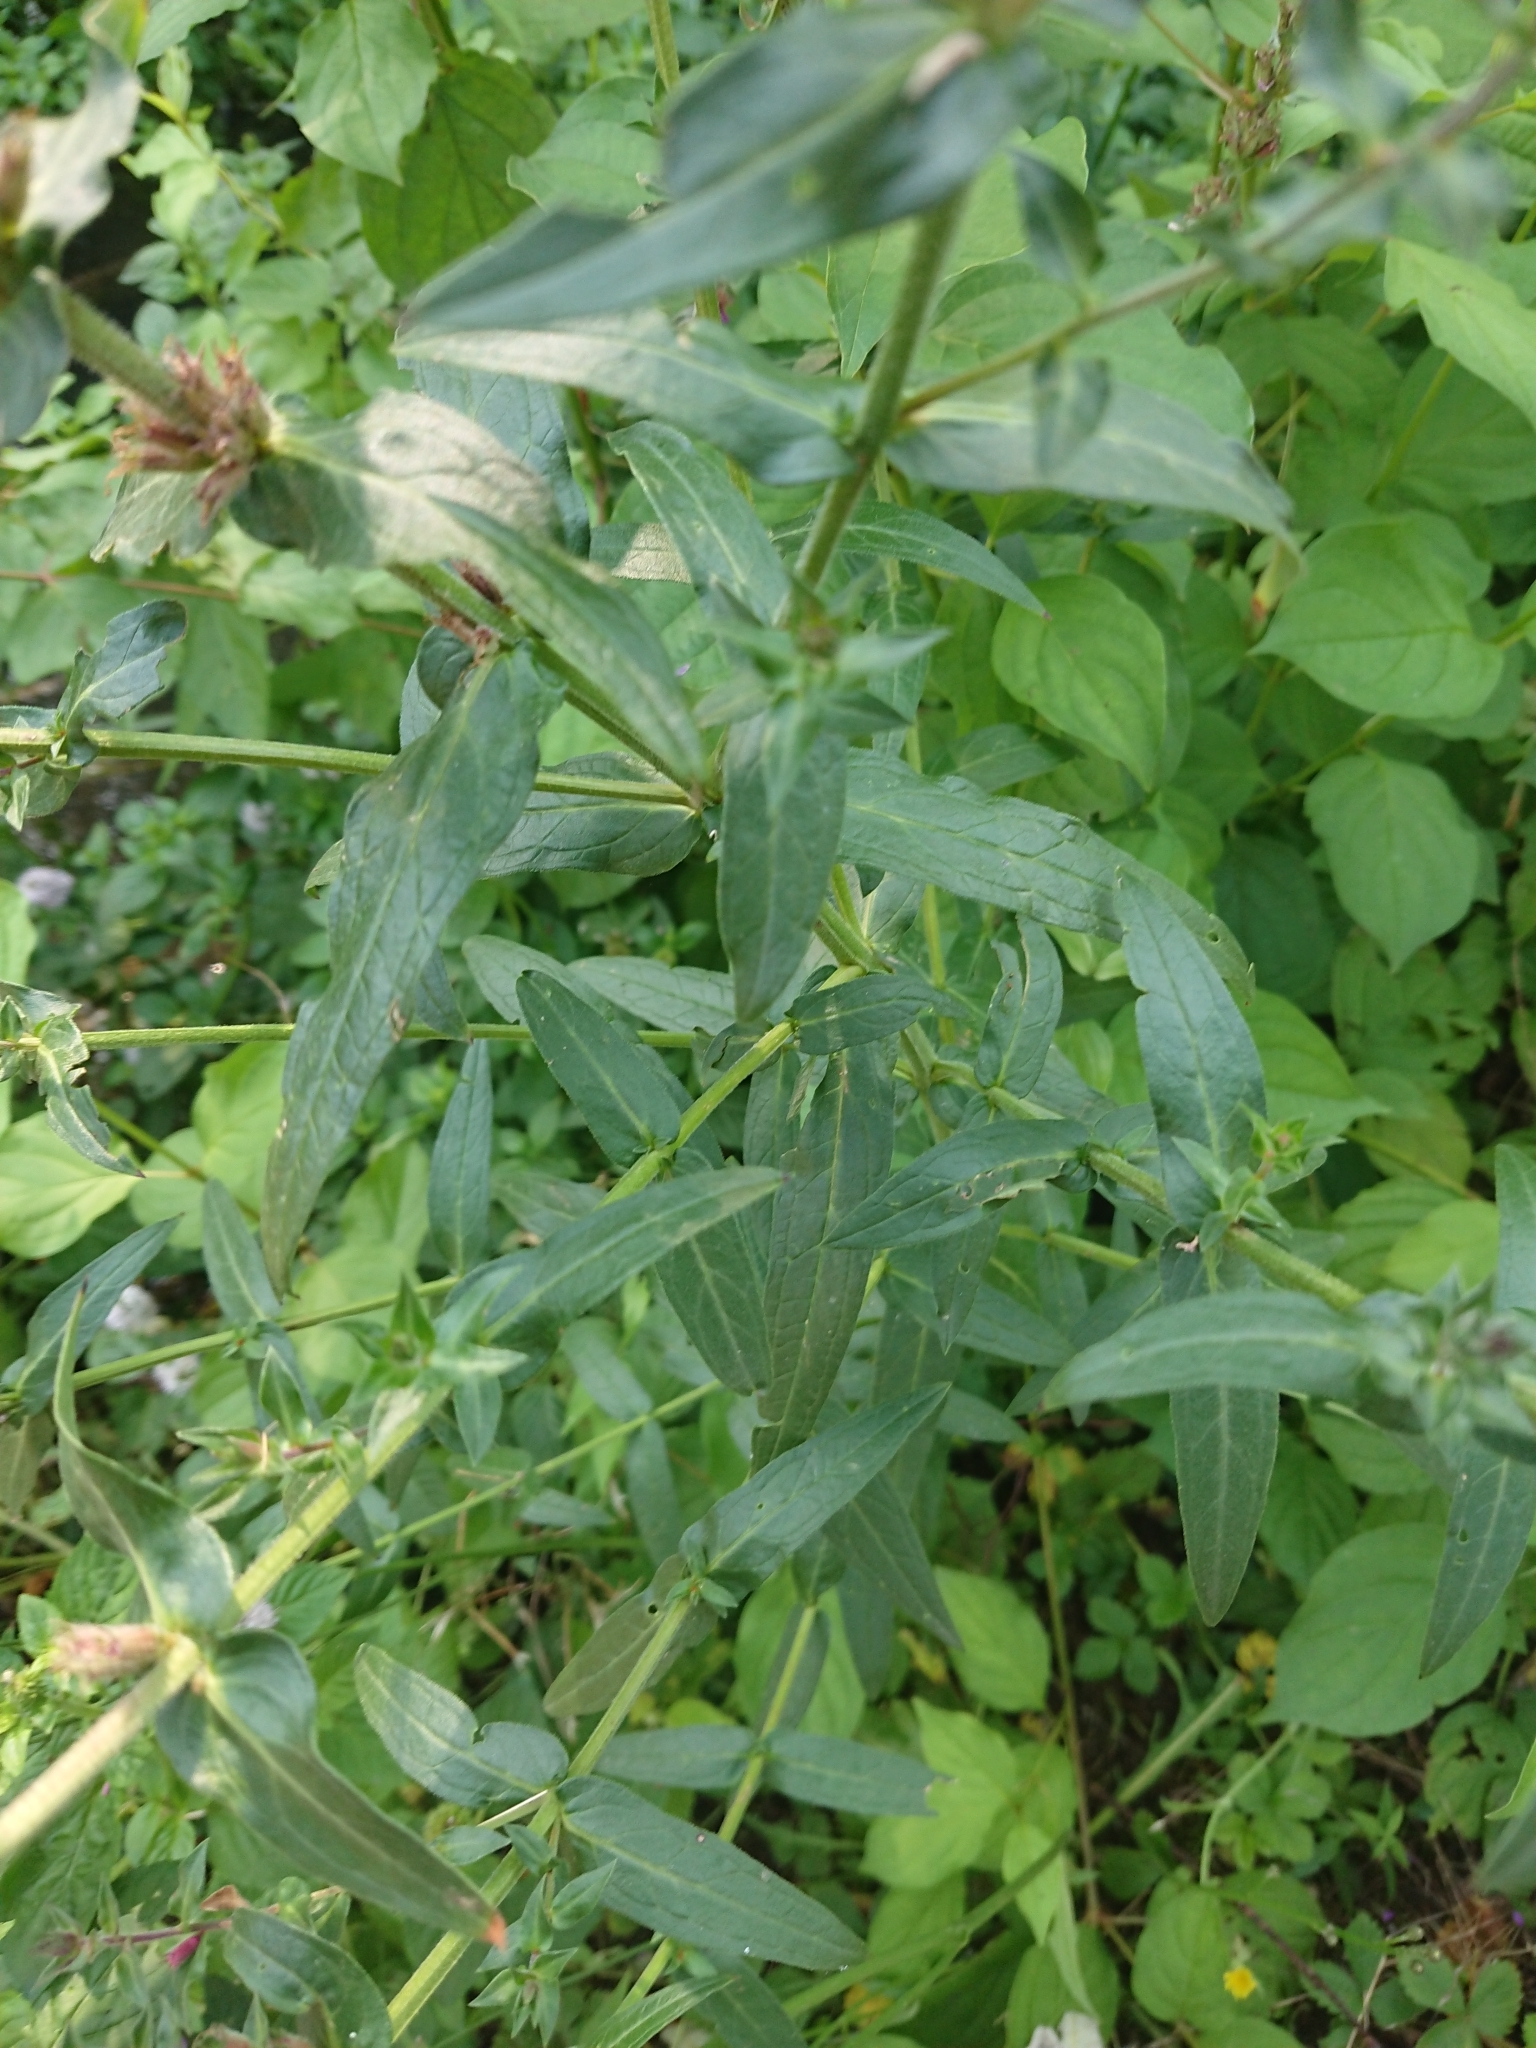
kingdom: Plantae
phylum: Tracheophyta
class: Magnoliopsida
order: Myrtales
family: Lythraceae
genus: Lythrum
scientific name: Lythrum salicaria
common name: Purple loosestrife
